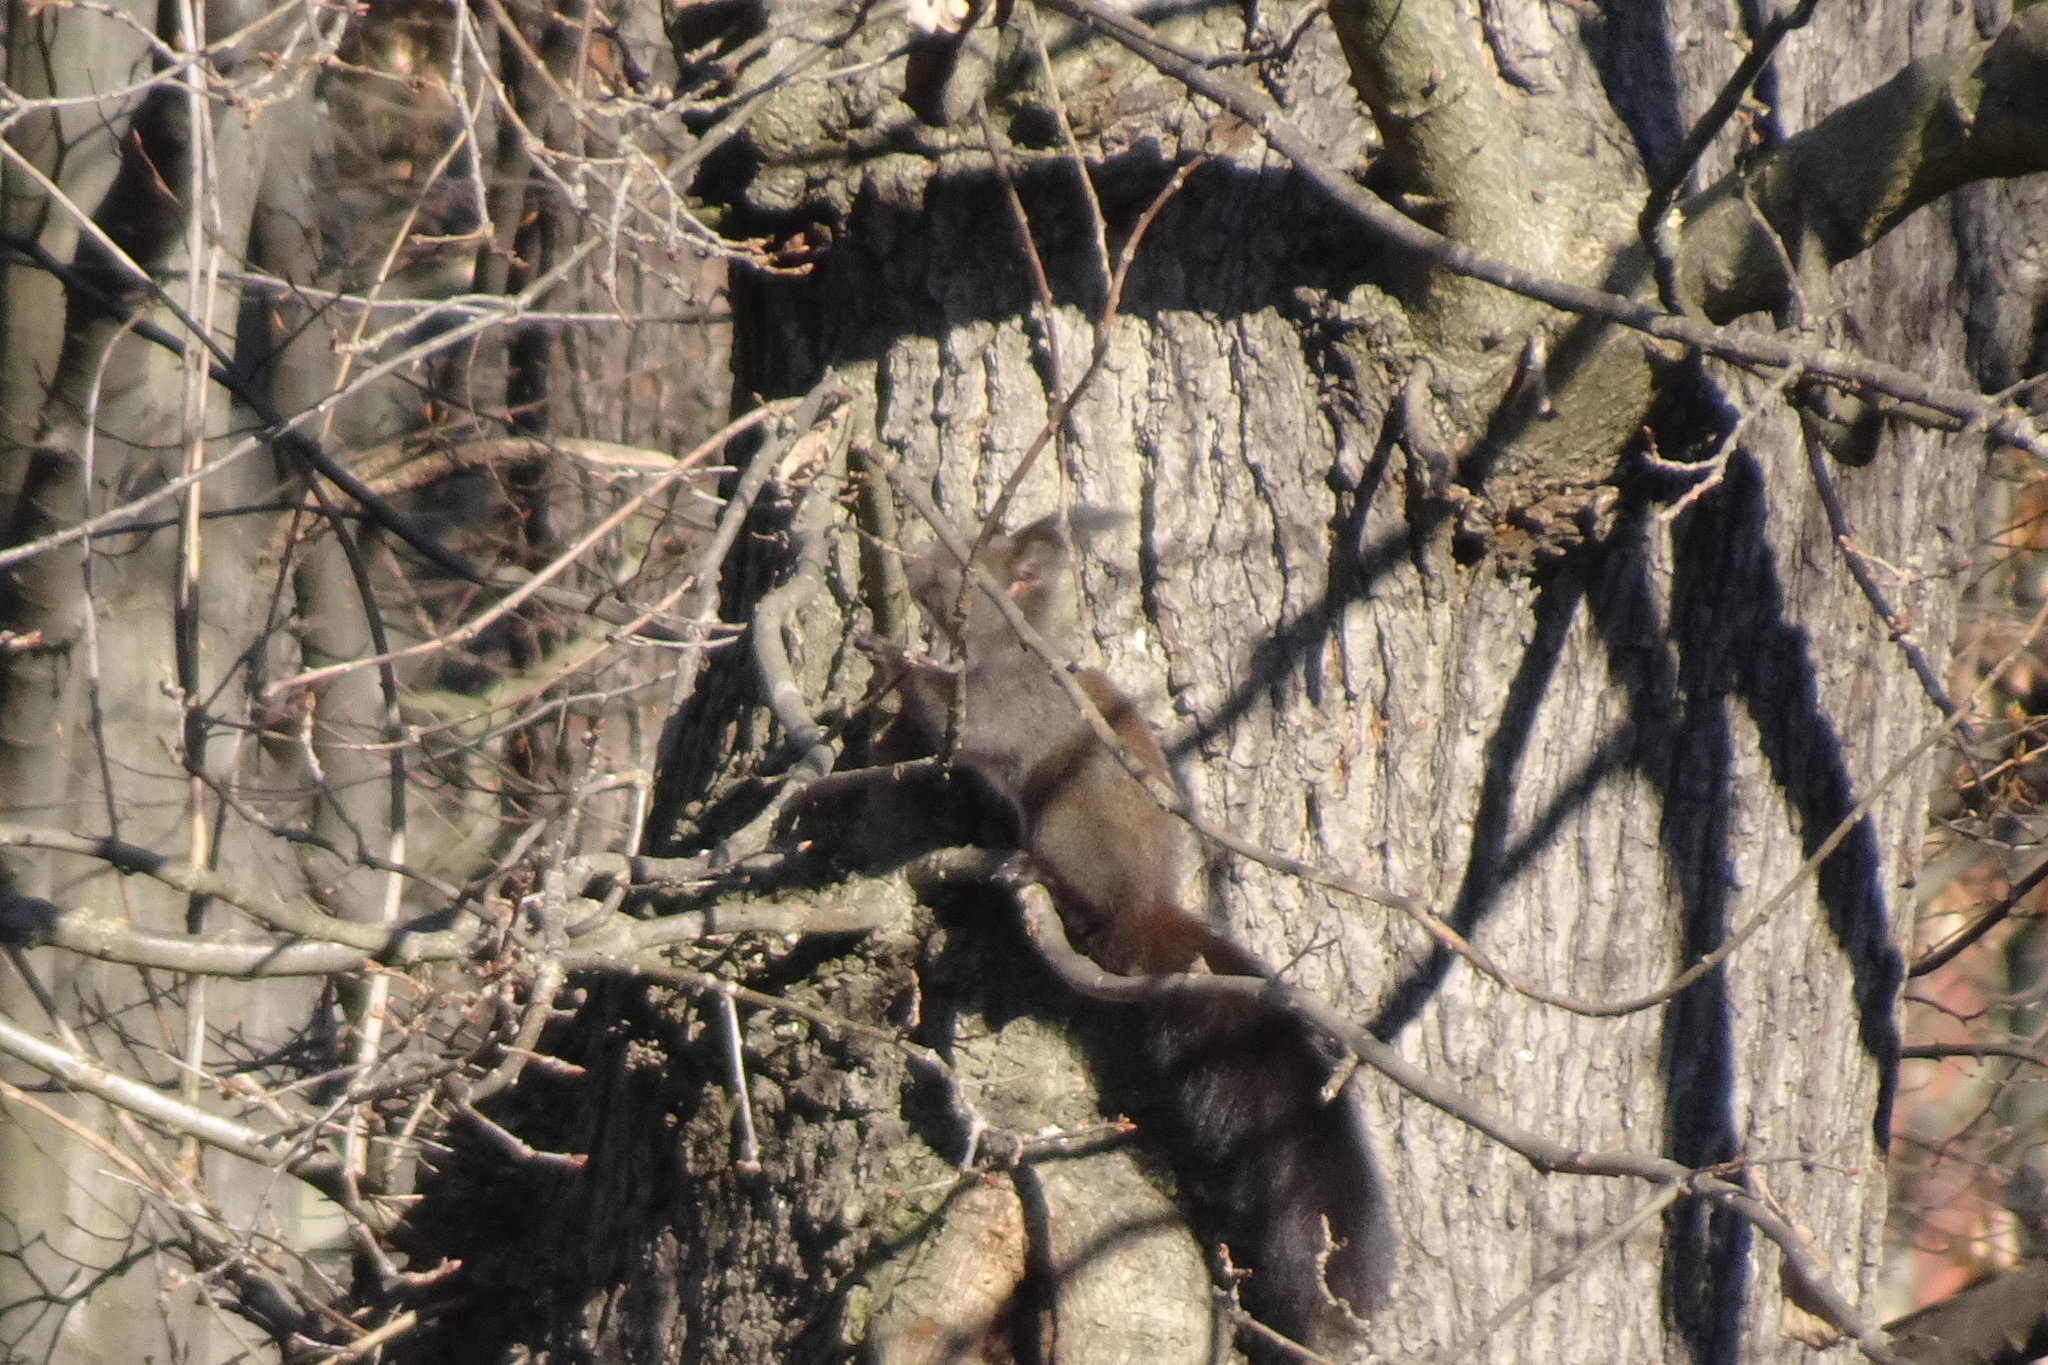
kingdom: Animalia
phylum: Chordata
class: Mammalia
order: Rodentia
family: Sciuridae
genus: Sciurus
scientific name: Sciurus vulgaris
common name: Eurasian red squirrel
